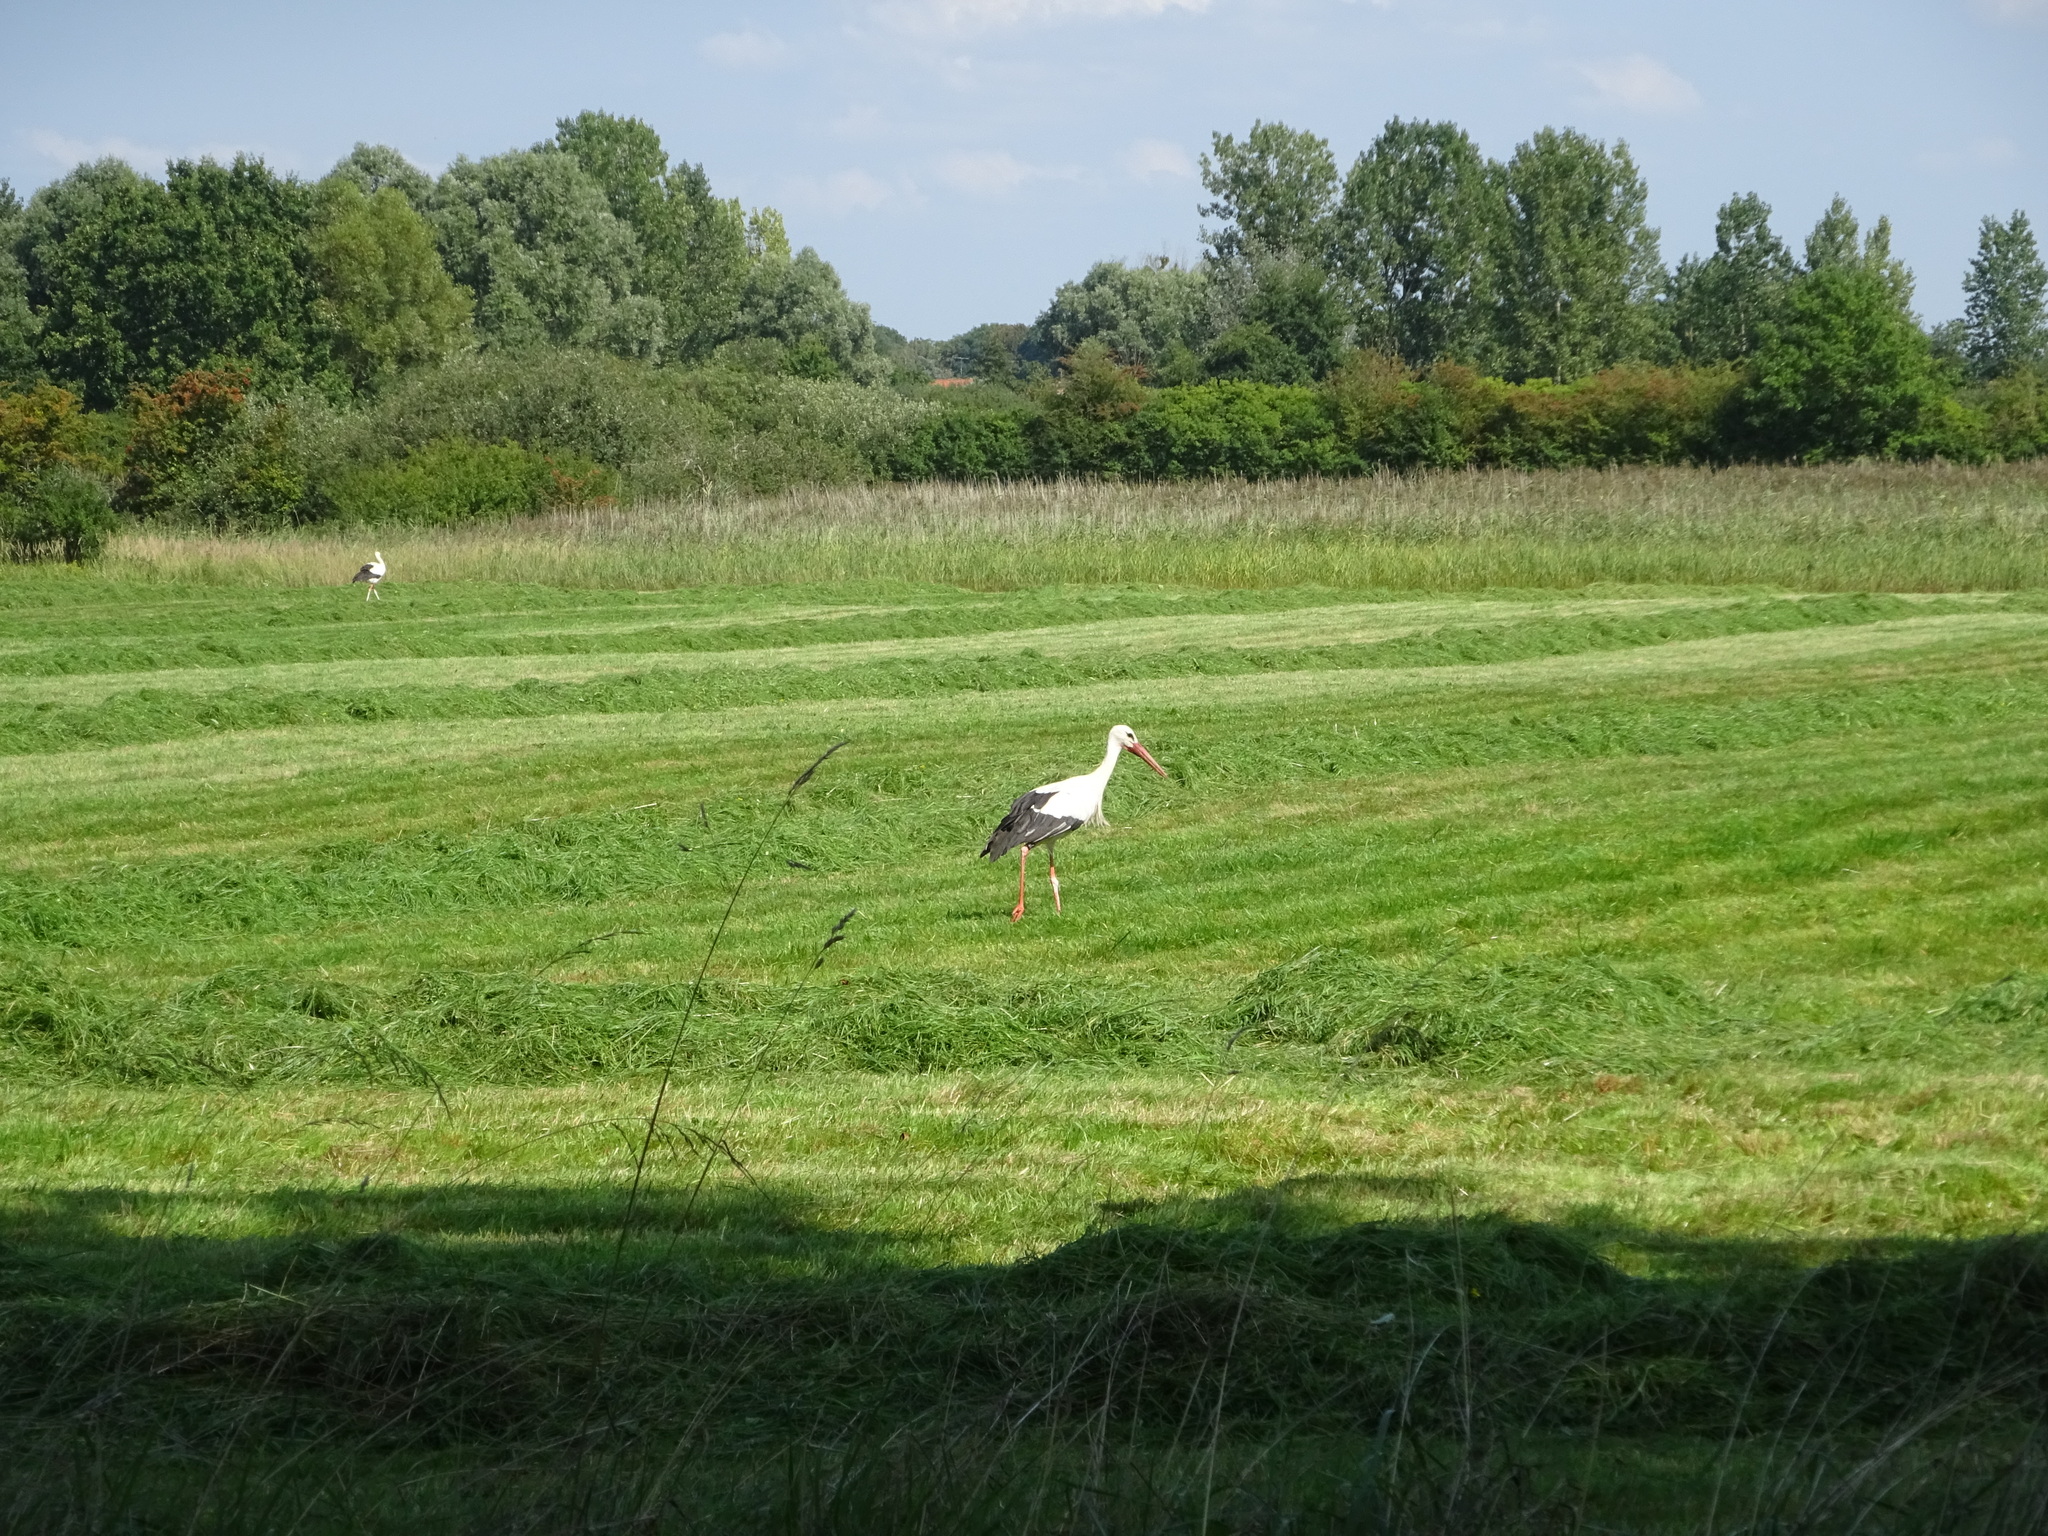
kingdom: Animalia
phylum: Chordata
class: Aves
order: Ciconiiformes
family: Ciconiidae
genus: Ciconia
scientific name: Ciconia ciconia
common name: White stork
